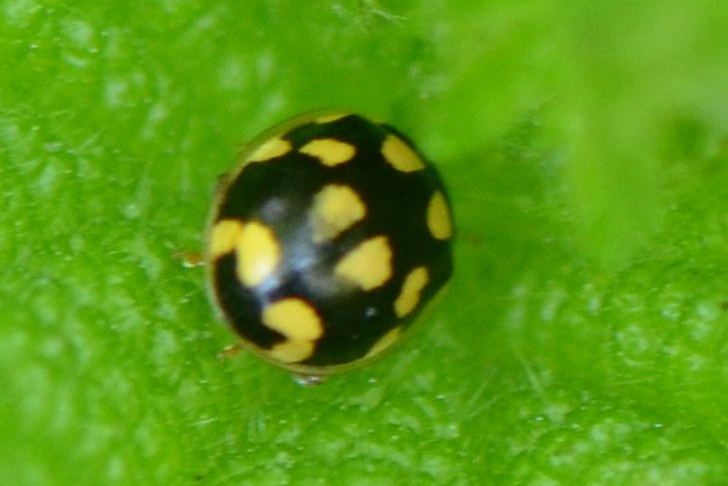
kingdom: Animalia
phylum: Arthropoda
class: Insecta
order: Coleoptera
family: Coccinellidae
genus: Propylaea
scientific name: Propylaea quatuordecimpunctata
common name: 14-spotted ladybird beetle
